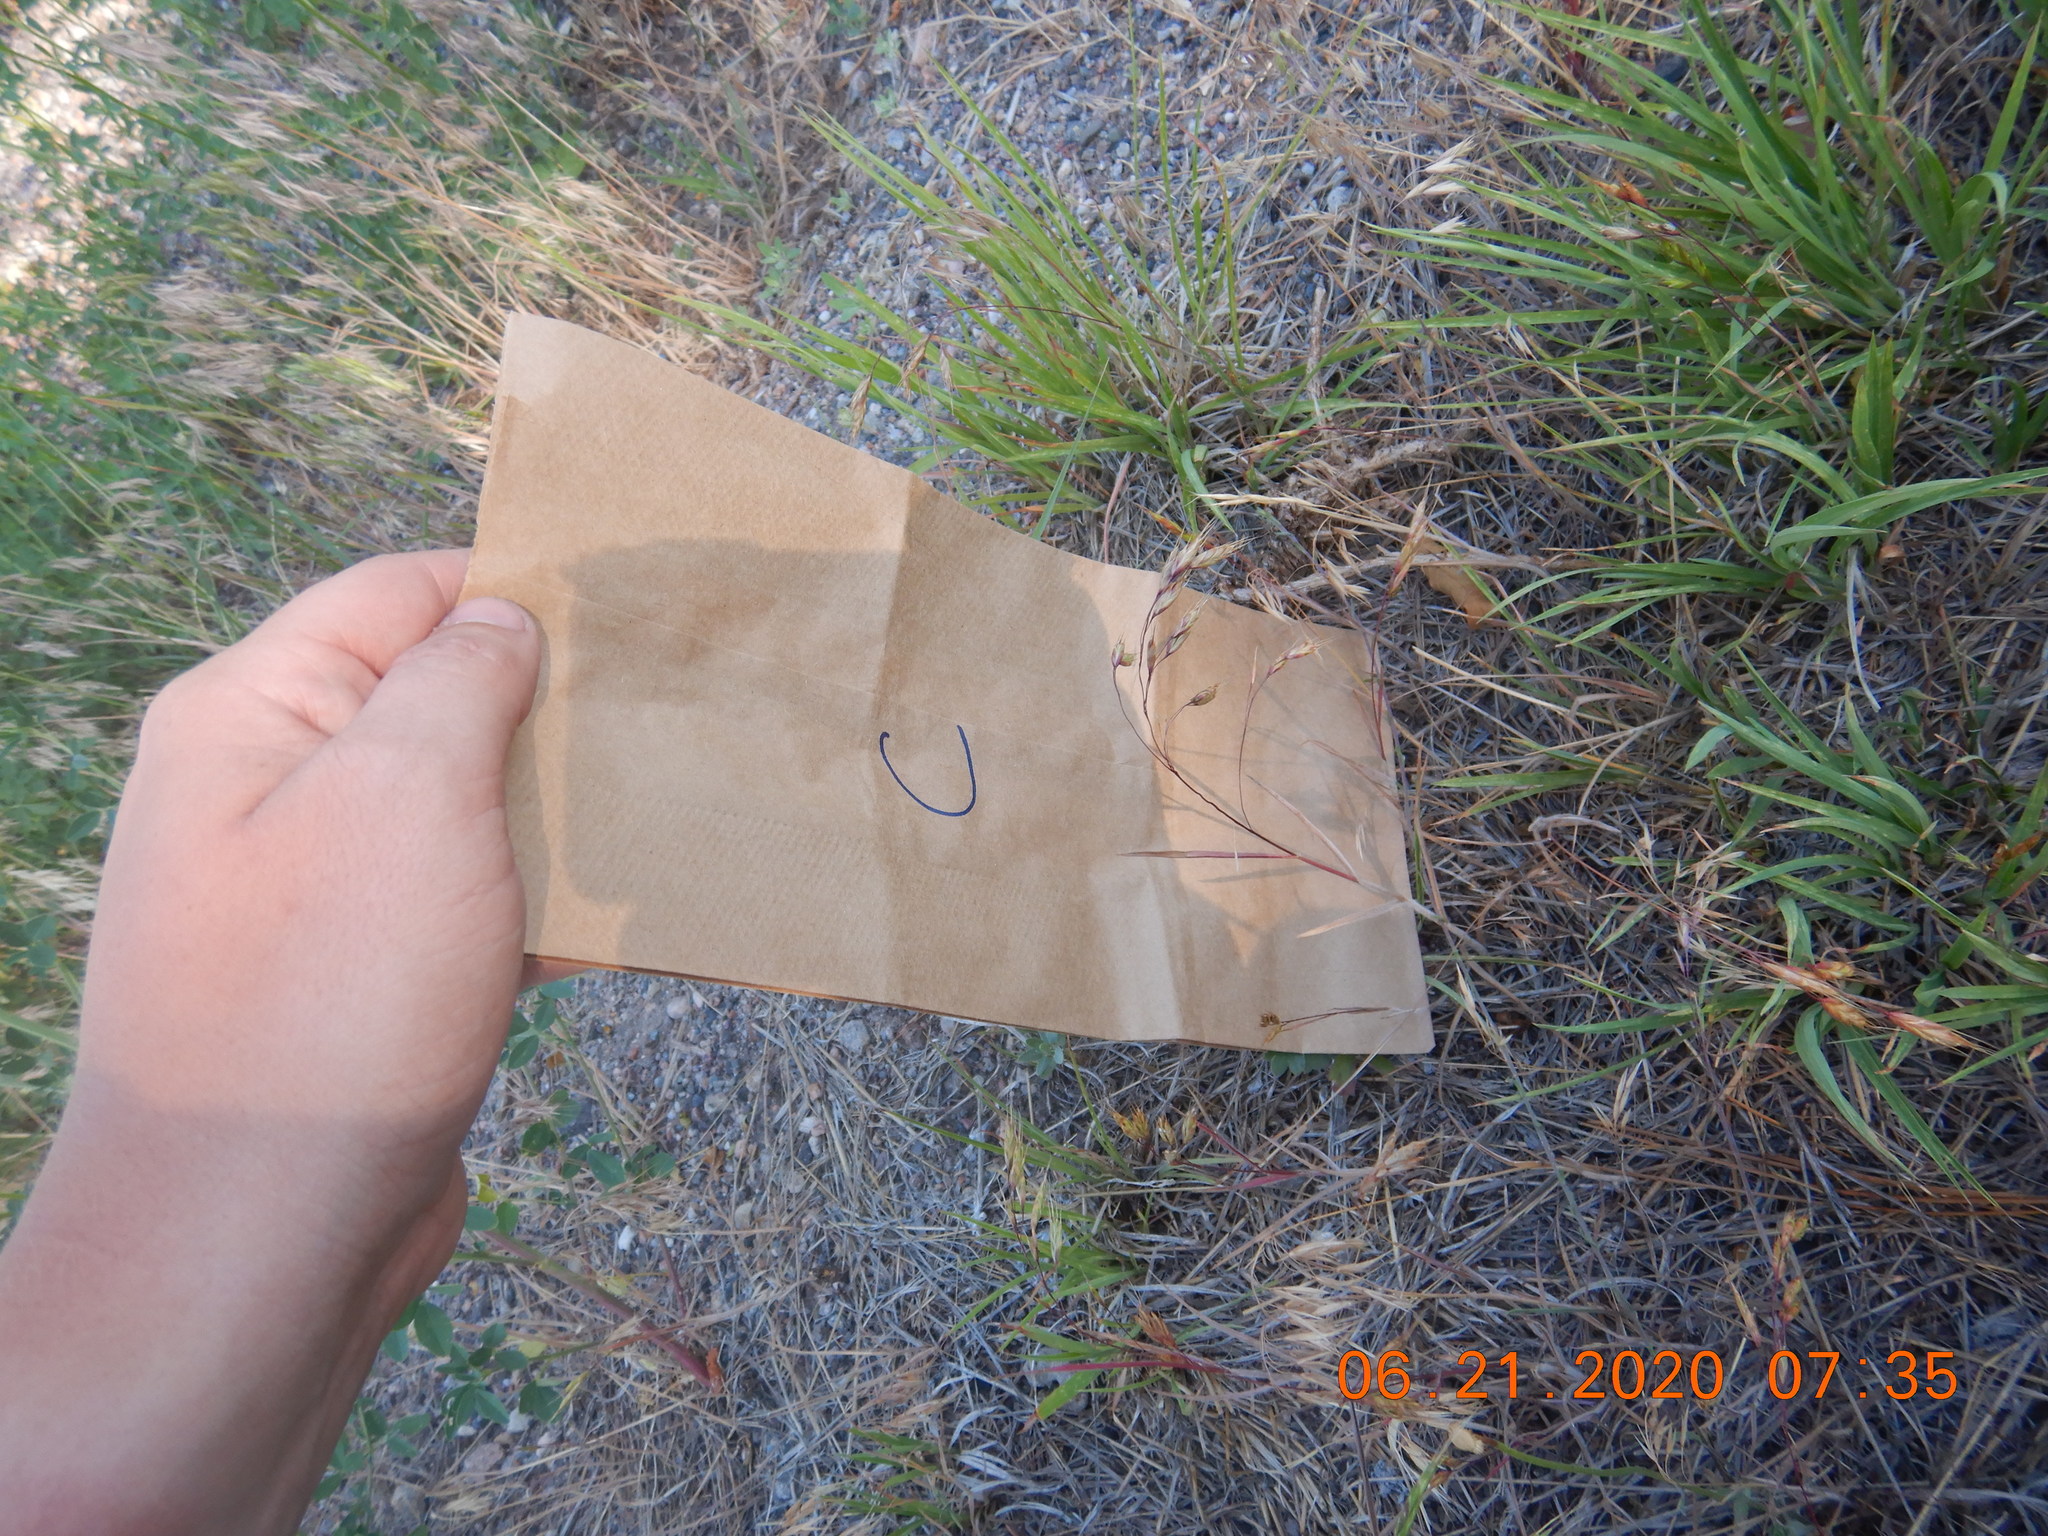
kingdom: Plantae
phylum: Tracheophyta
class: Liliopsida
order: Poales
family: Poaceae
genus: Bromus
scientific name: Bromus tectorum
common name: Cheatgrass
